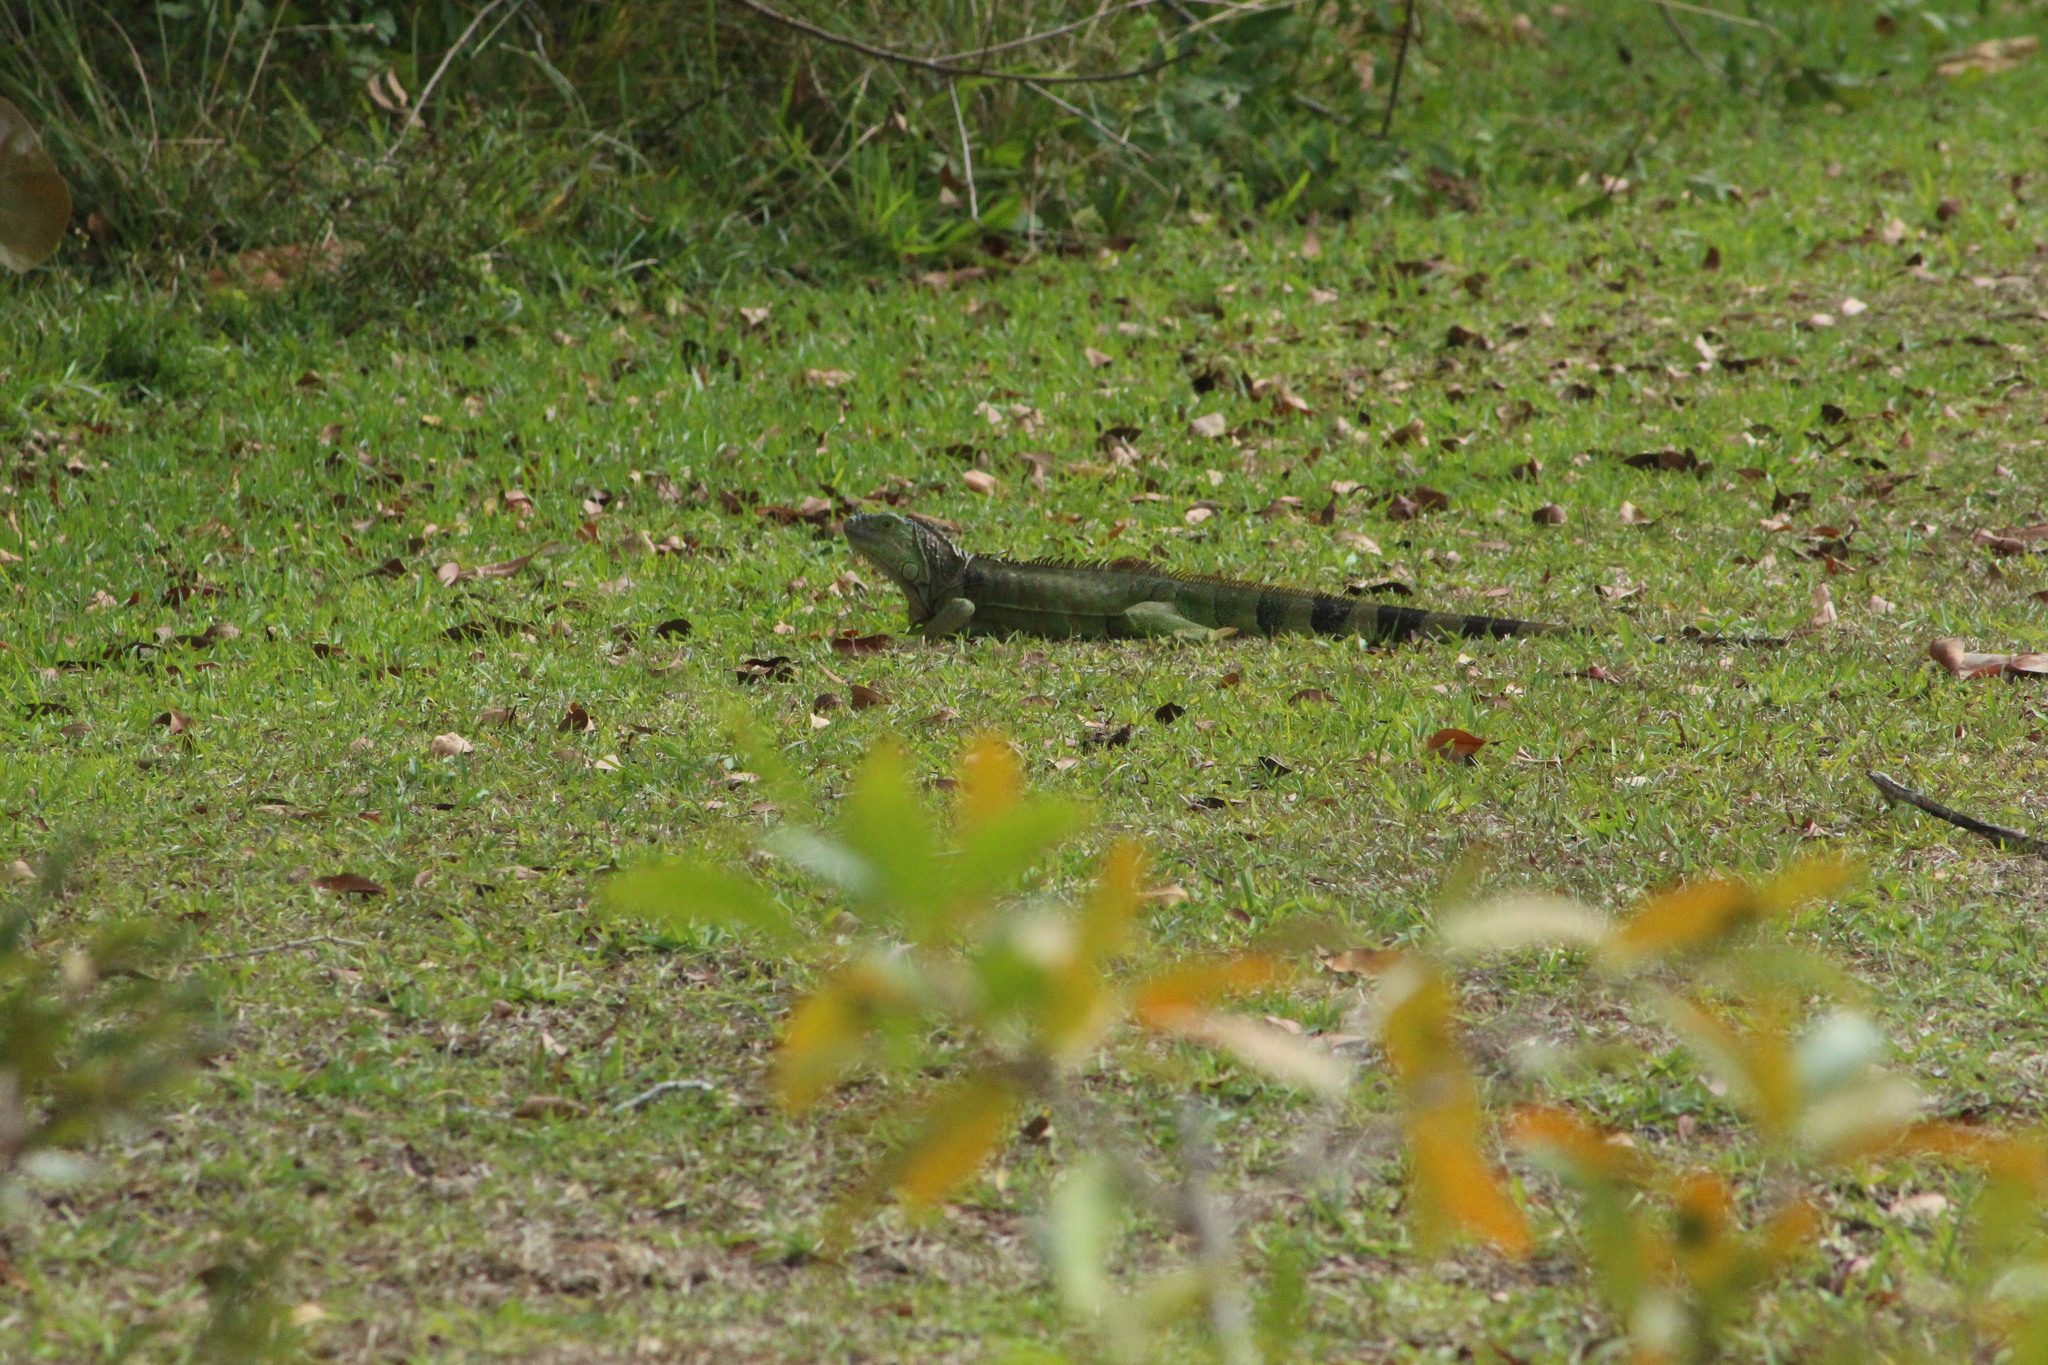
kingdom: Animalia
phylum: Chordata
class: Squamata
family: Iguanidae
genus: Iguana
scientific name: Iguana iguana
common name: Green iguana
